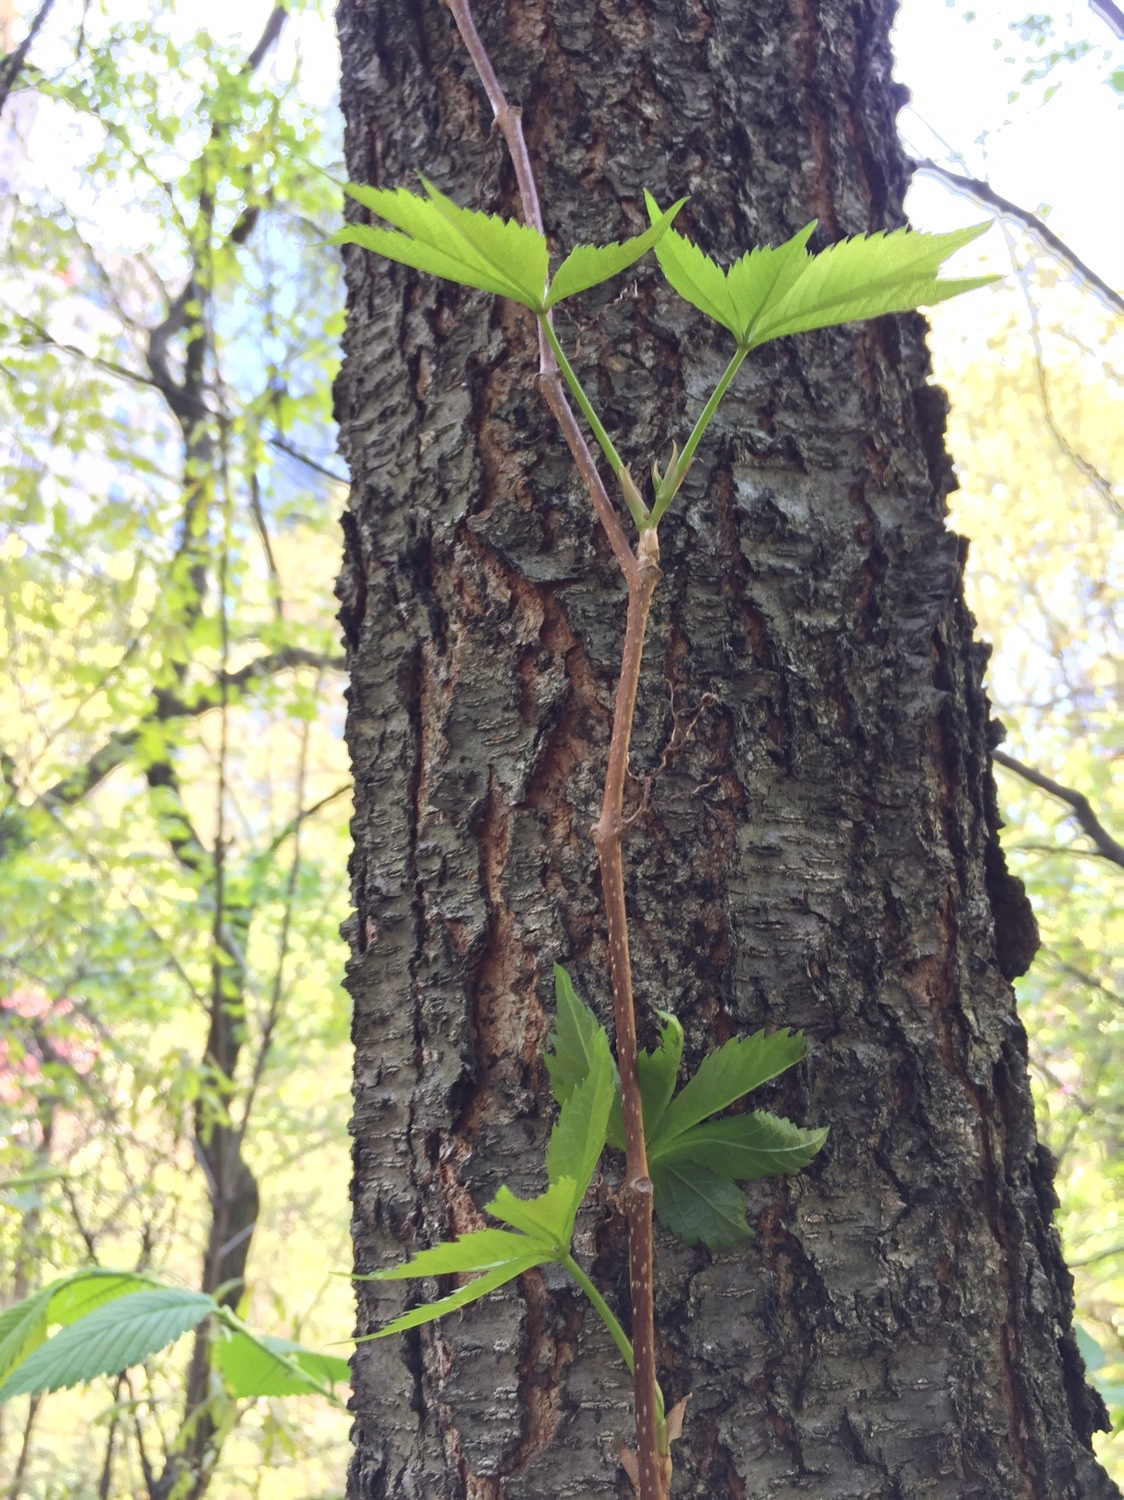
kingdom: Plantae
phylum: Tracheophyta
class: Magnoliopsida
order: Vitales
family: Vitaceae
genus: Parthenocissus
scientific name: Parthenocissus quinquefolia
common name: Virginia-creeper
